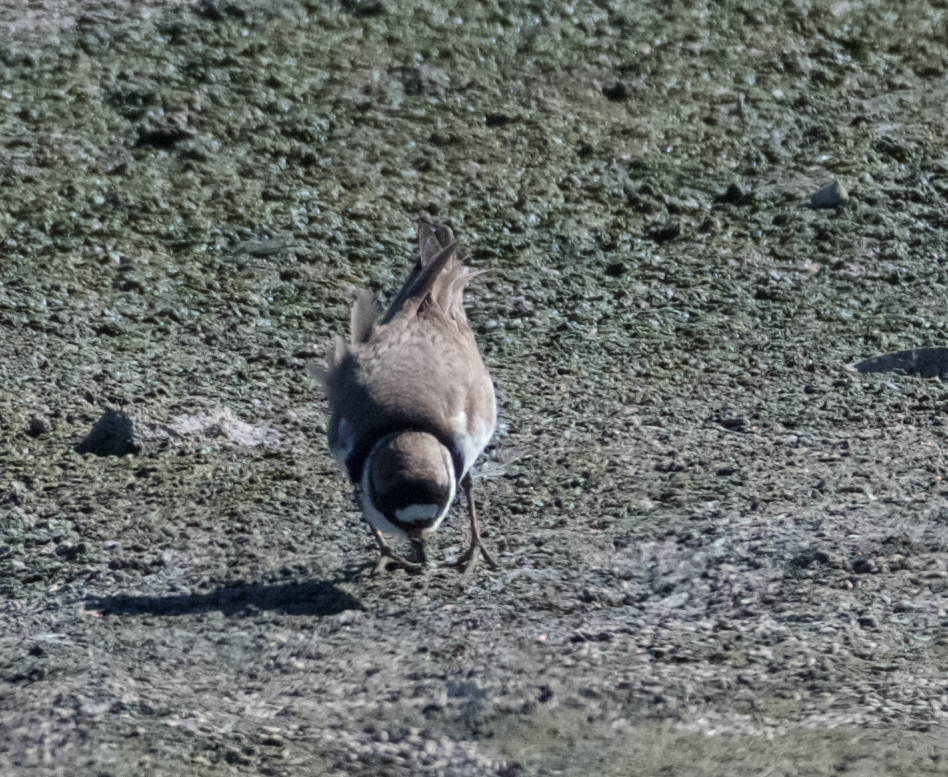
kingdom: Animalia
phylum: Chordata
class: Aves
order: Charadriiformes
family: Charadriidae
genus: Charadrius
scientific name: Charadrius vociferus
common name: Killdeer
